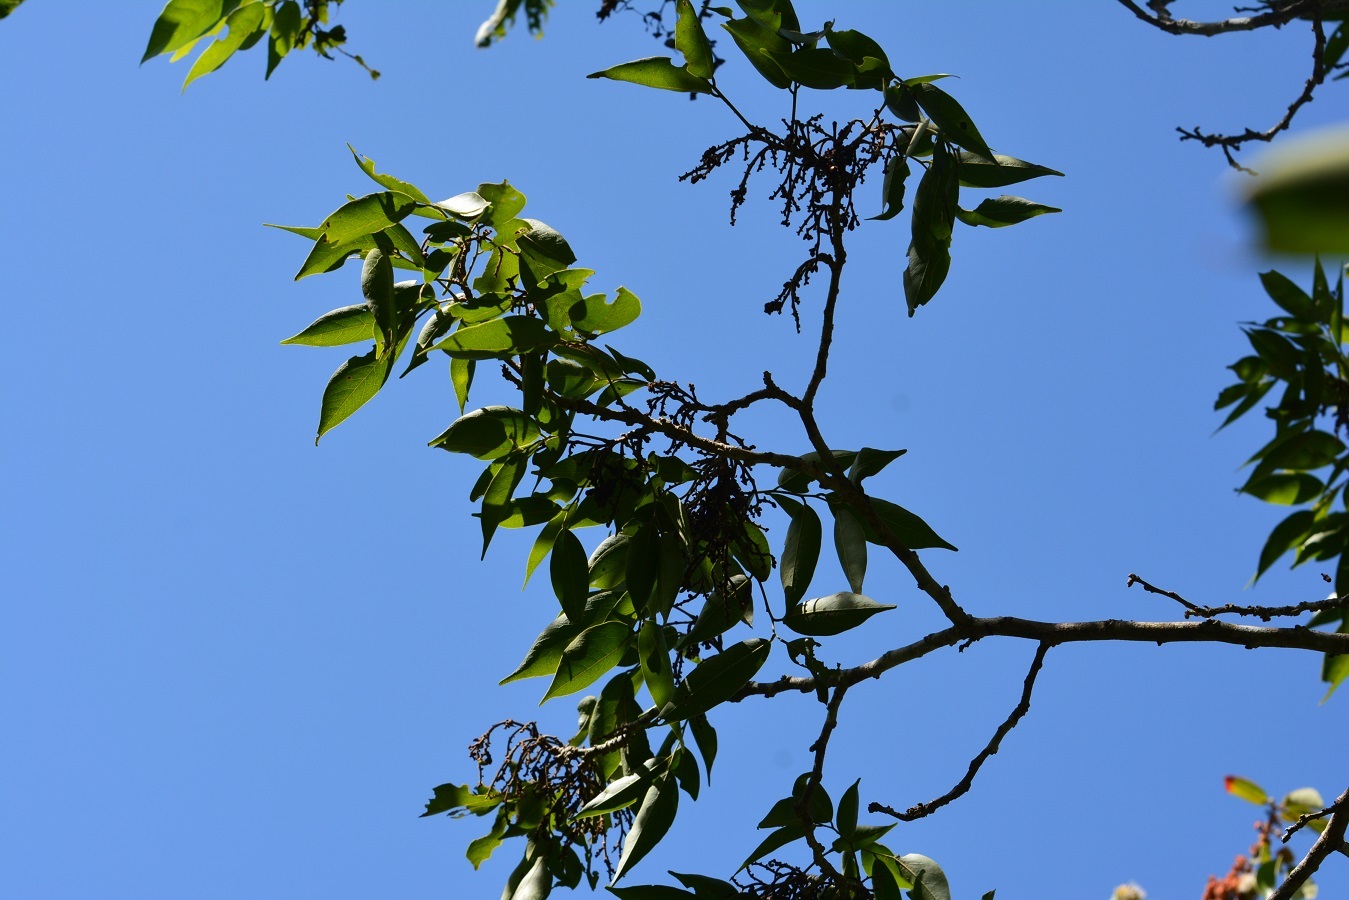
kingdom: Plantae
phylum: Tracheophyta
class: Magnoliopsida
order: Fabales
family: Fabaceae
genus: Ateleia
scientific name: Ateleia hexandra
